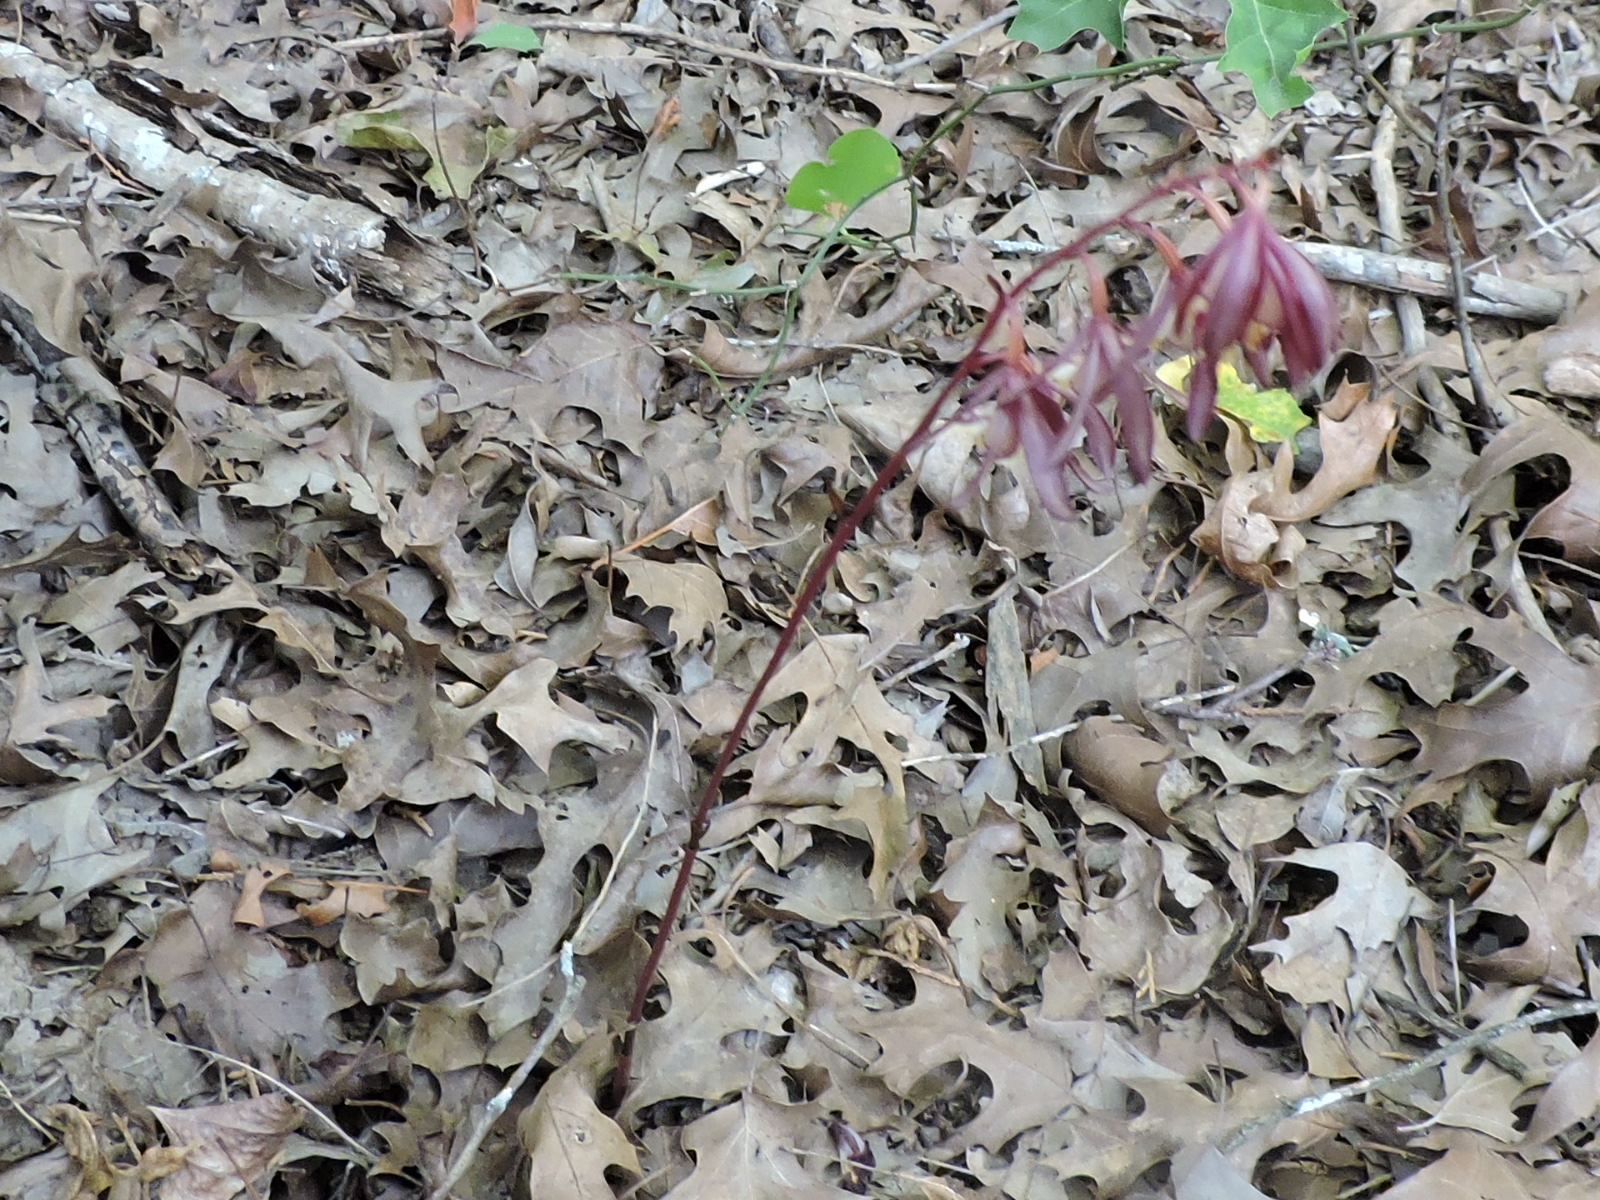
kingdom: Plantae
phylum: Tracheophyta
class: Liliopsida
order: Asparagales
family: Orchidaceae
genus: Bletia
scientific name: Bletia warnockii
